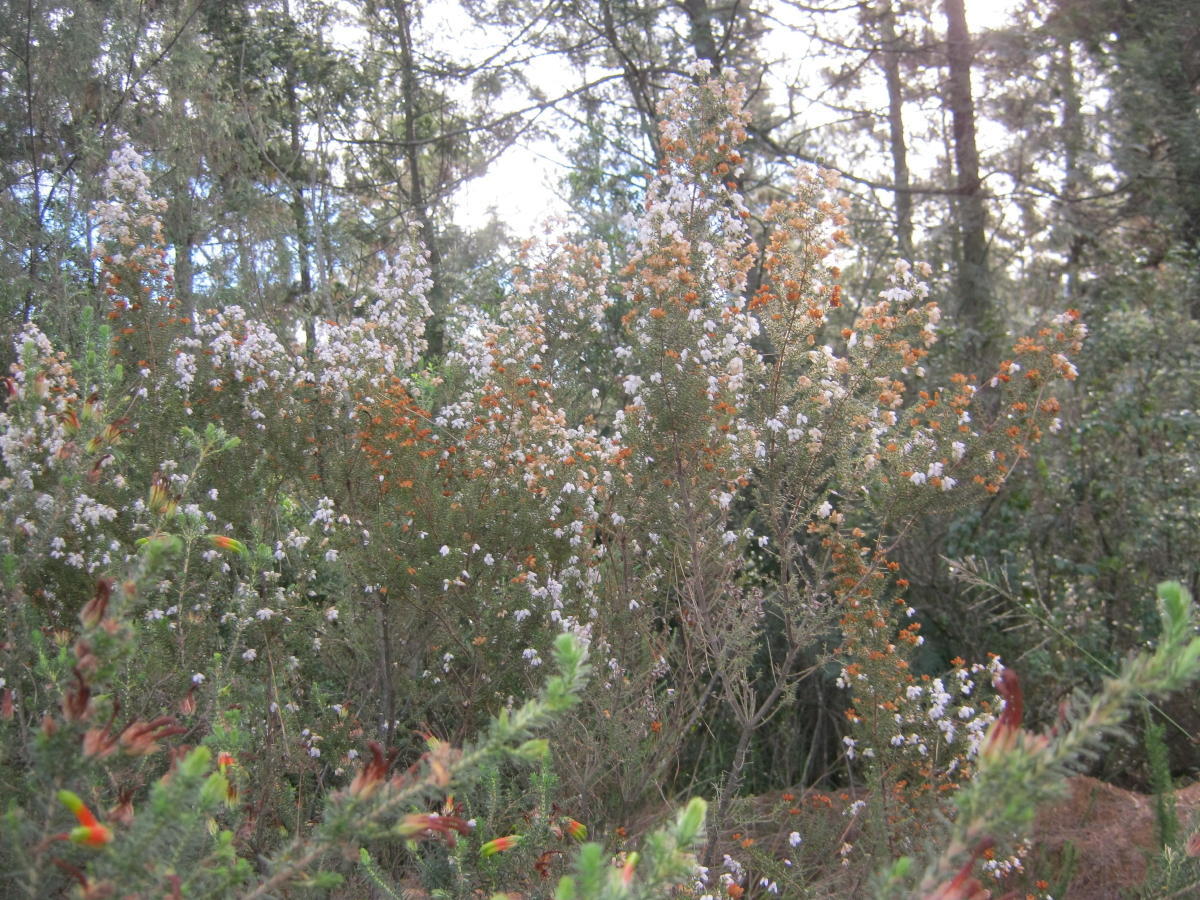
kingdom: Plantae
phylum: Tracheophyta
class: Magnoliopsida
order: Ericales
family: Ericaceae
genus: Erica
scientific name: Erica scabriuscula
